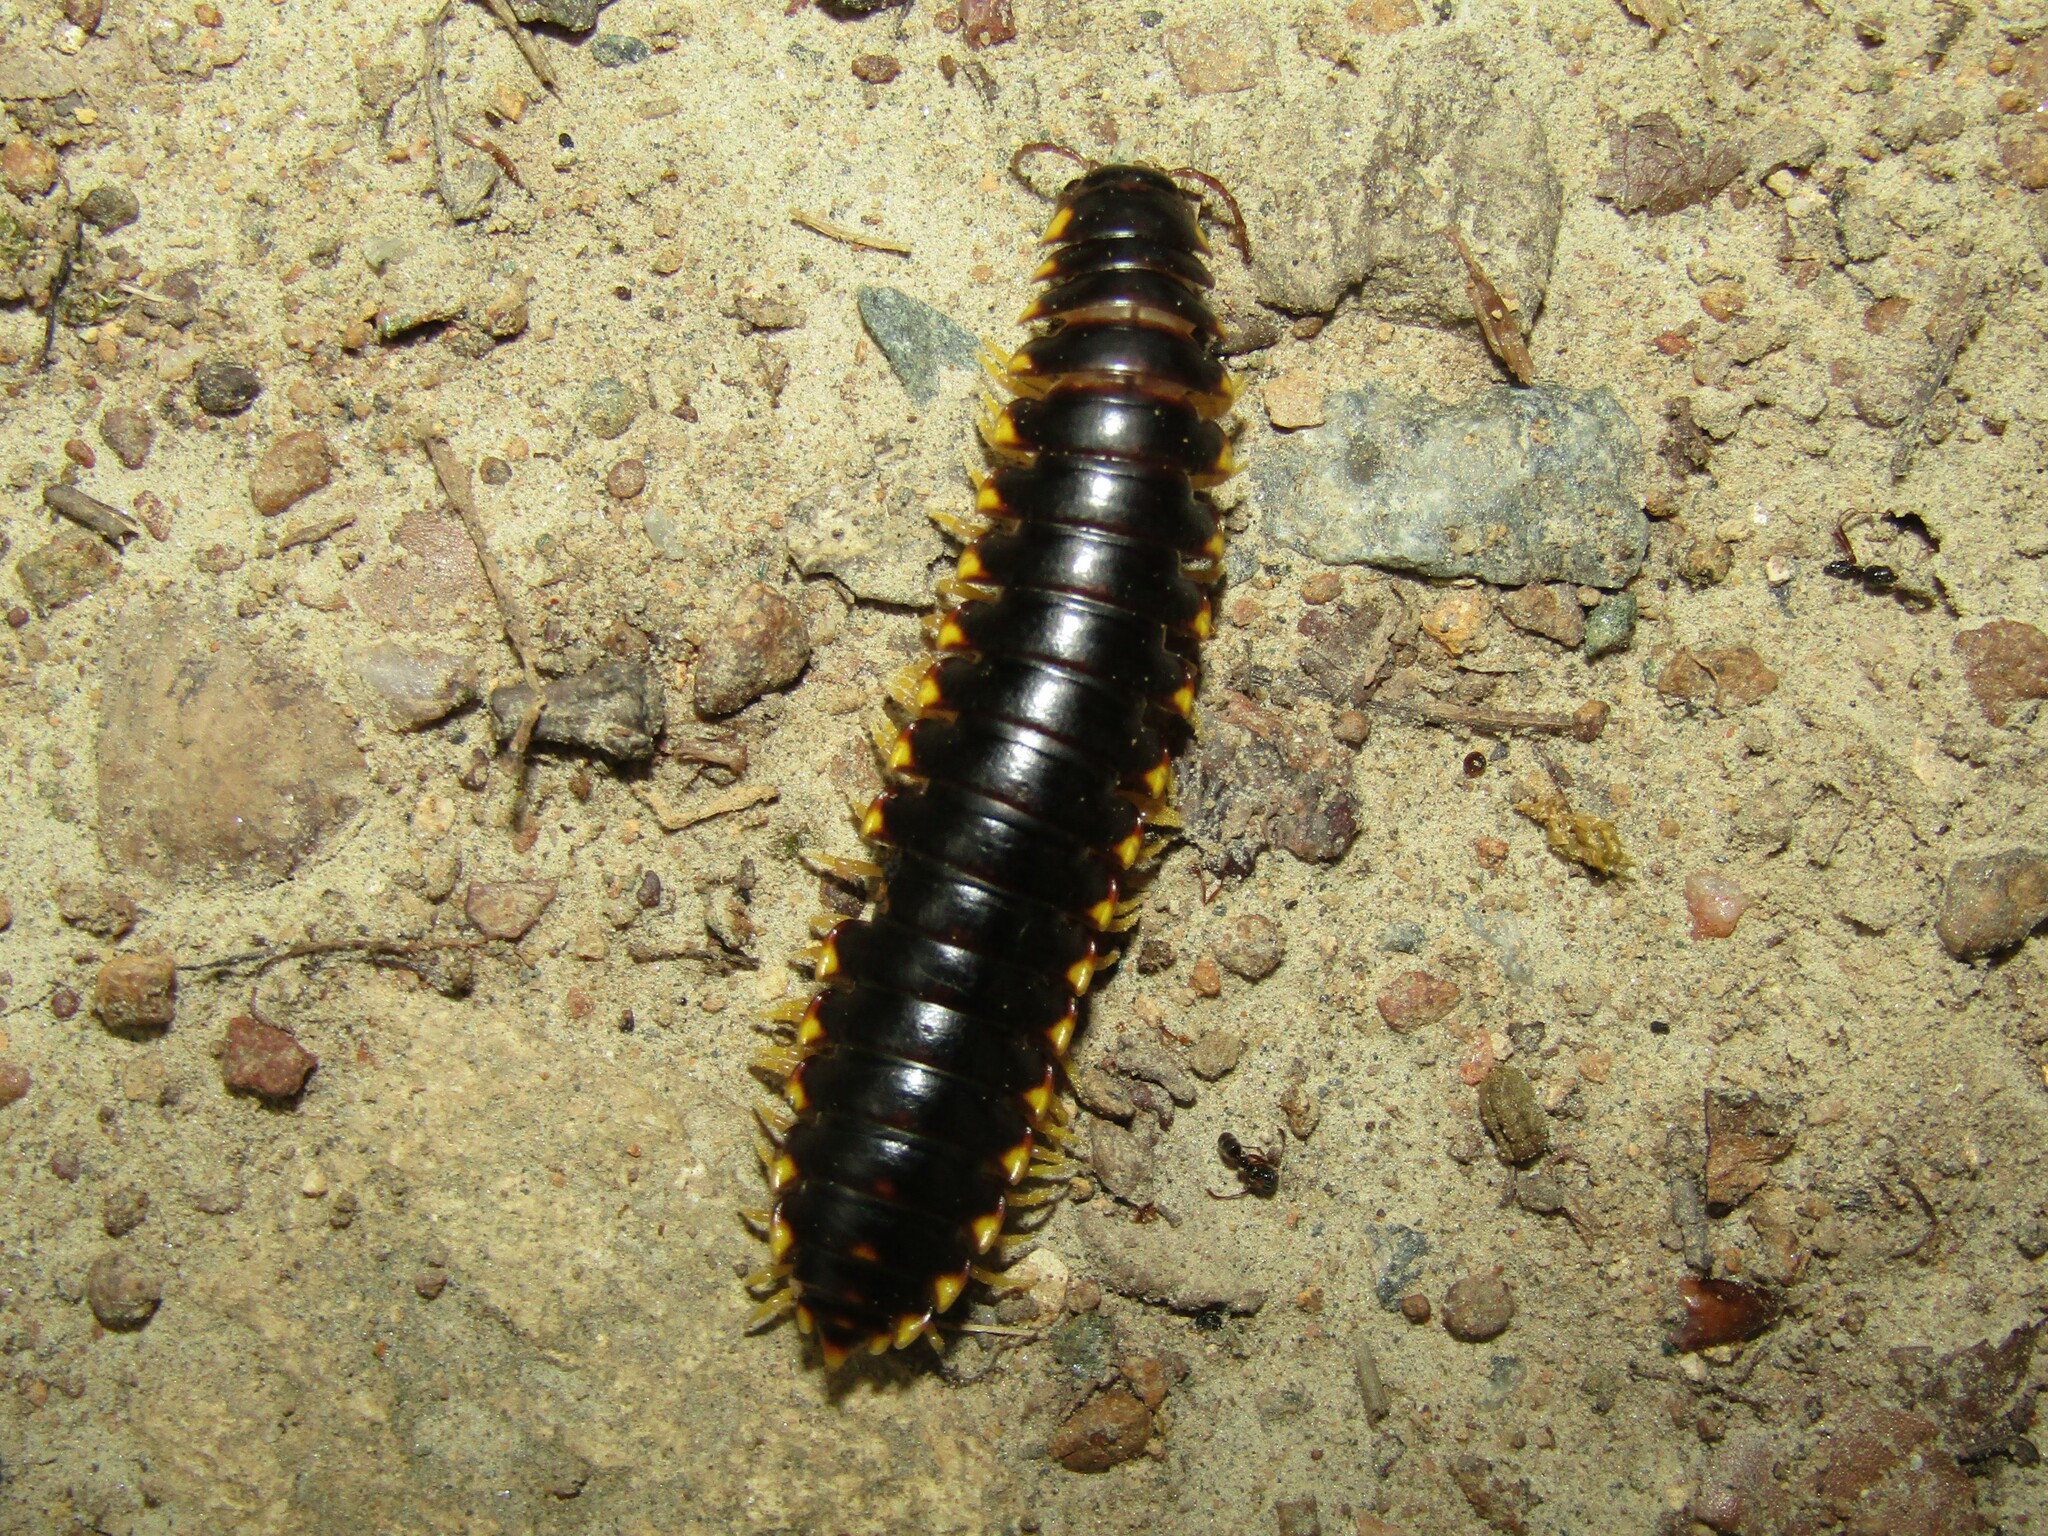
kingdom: Animalia
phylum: Arthropoda
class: Diplopoda
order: Polydesmida
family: Xystodesmidae
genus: Apheloria
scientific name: Apheloria tigana
